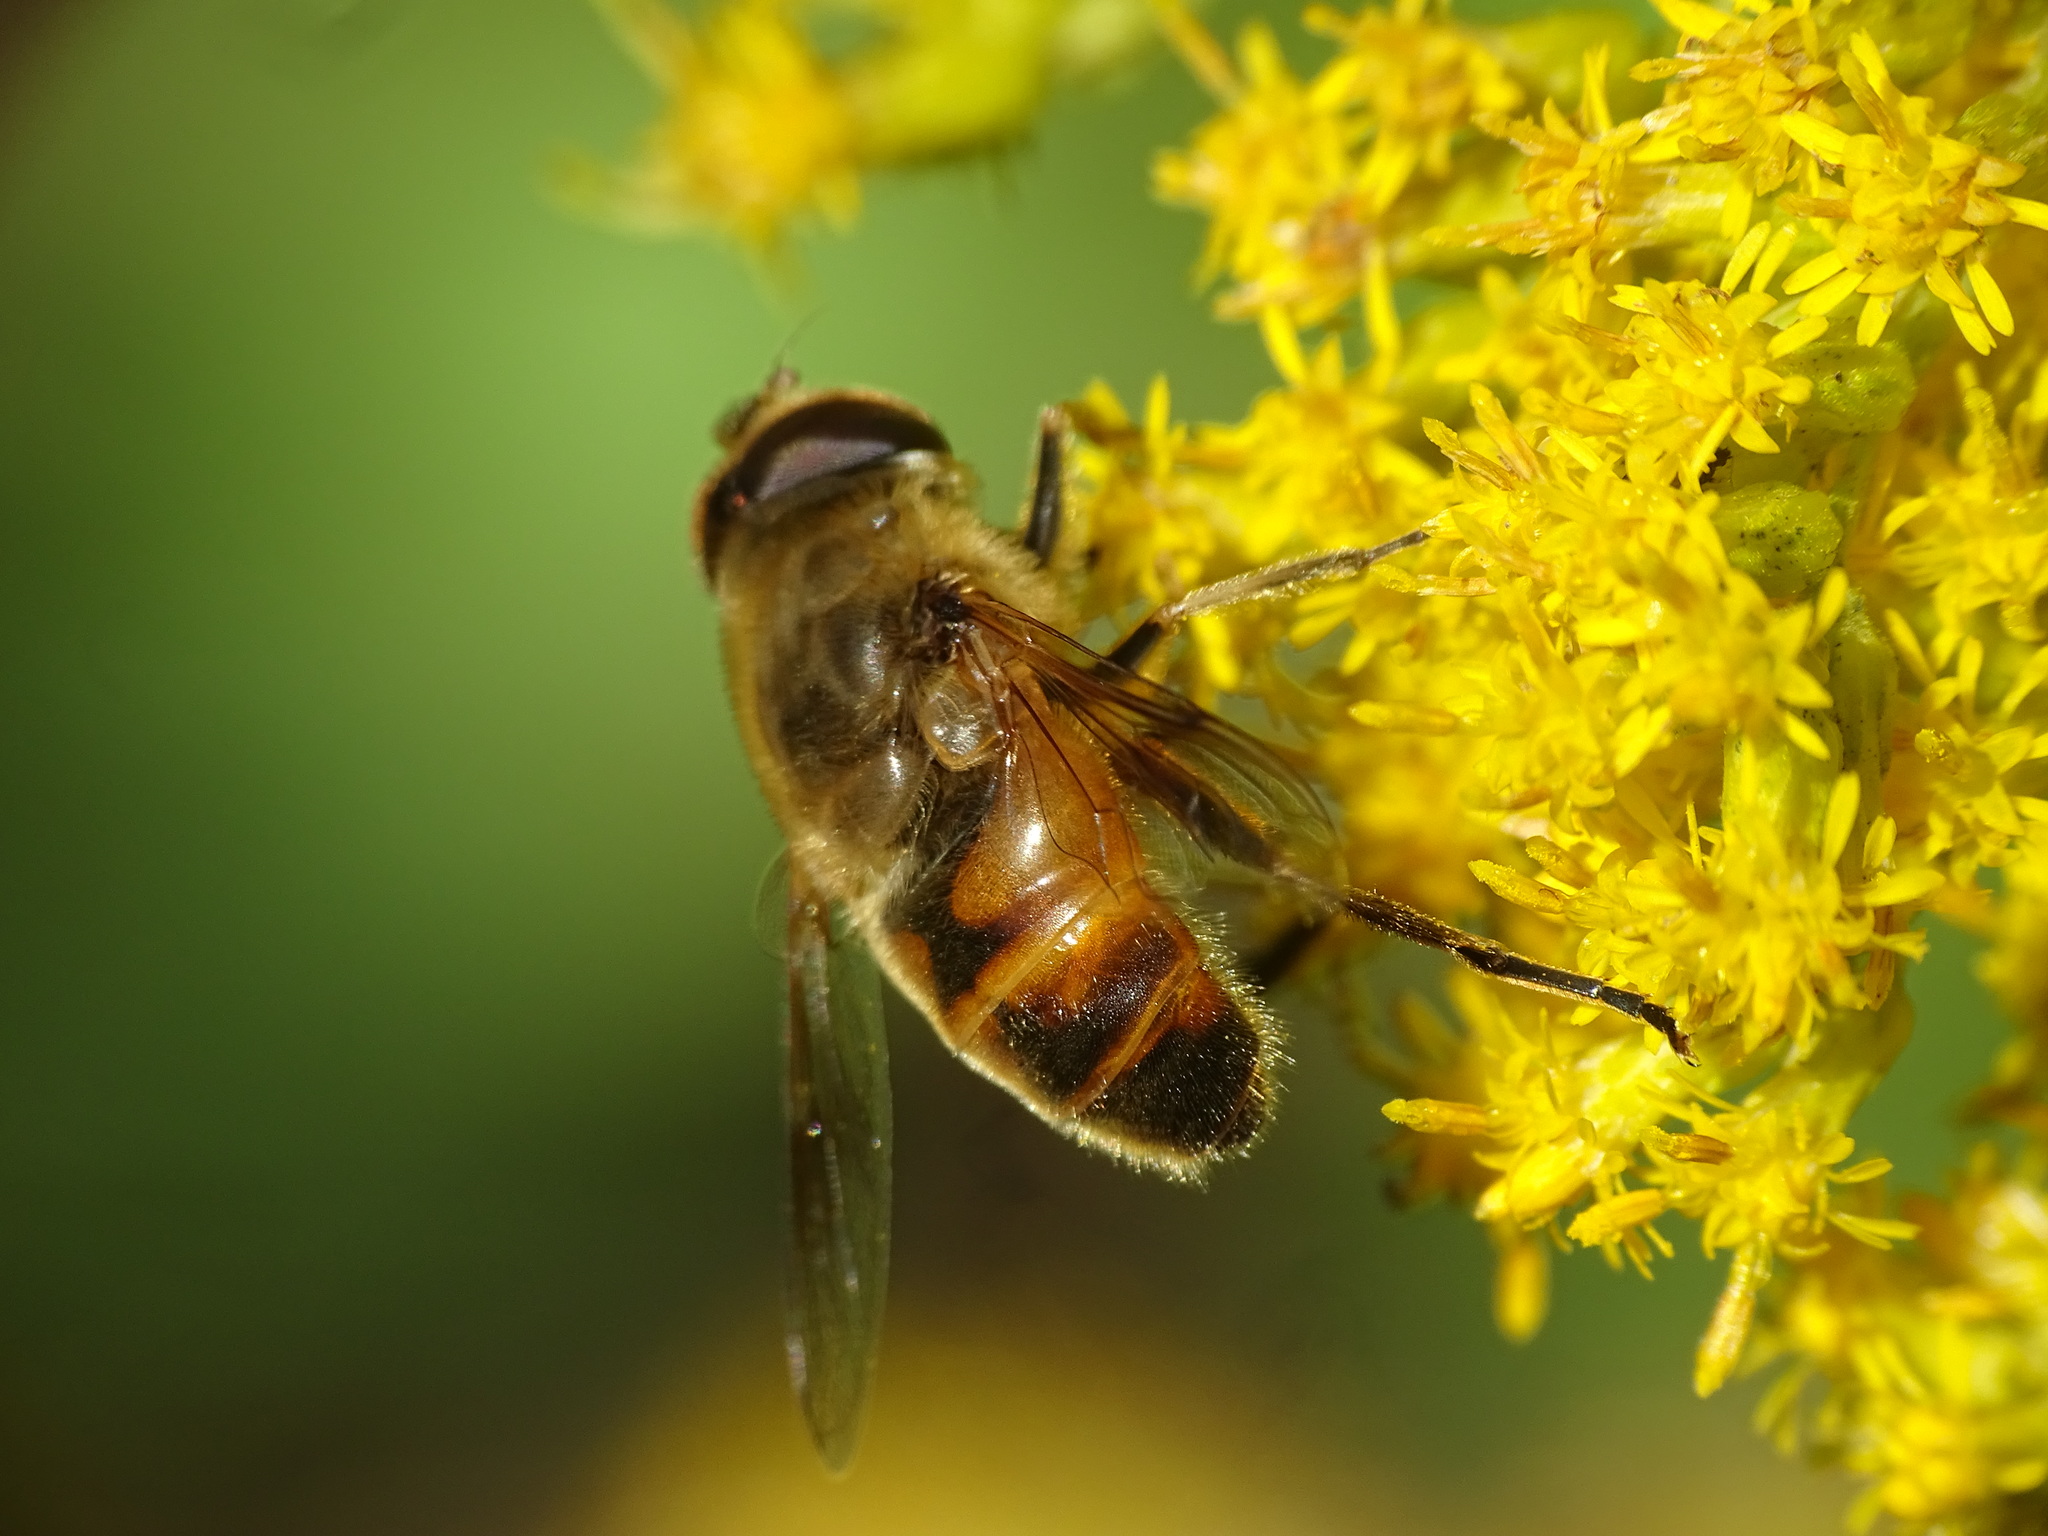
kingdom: Animalia
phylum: Arthropoda
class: Insecta
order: Diptera
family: Syrphidae
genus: Eristalis
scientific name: Eristalis tenax
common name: Drone fly
